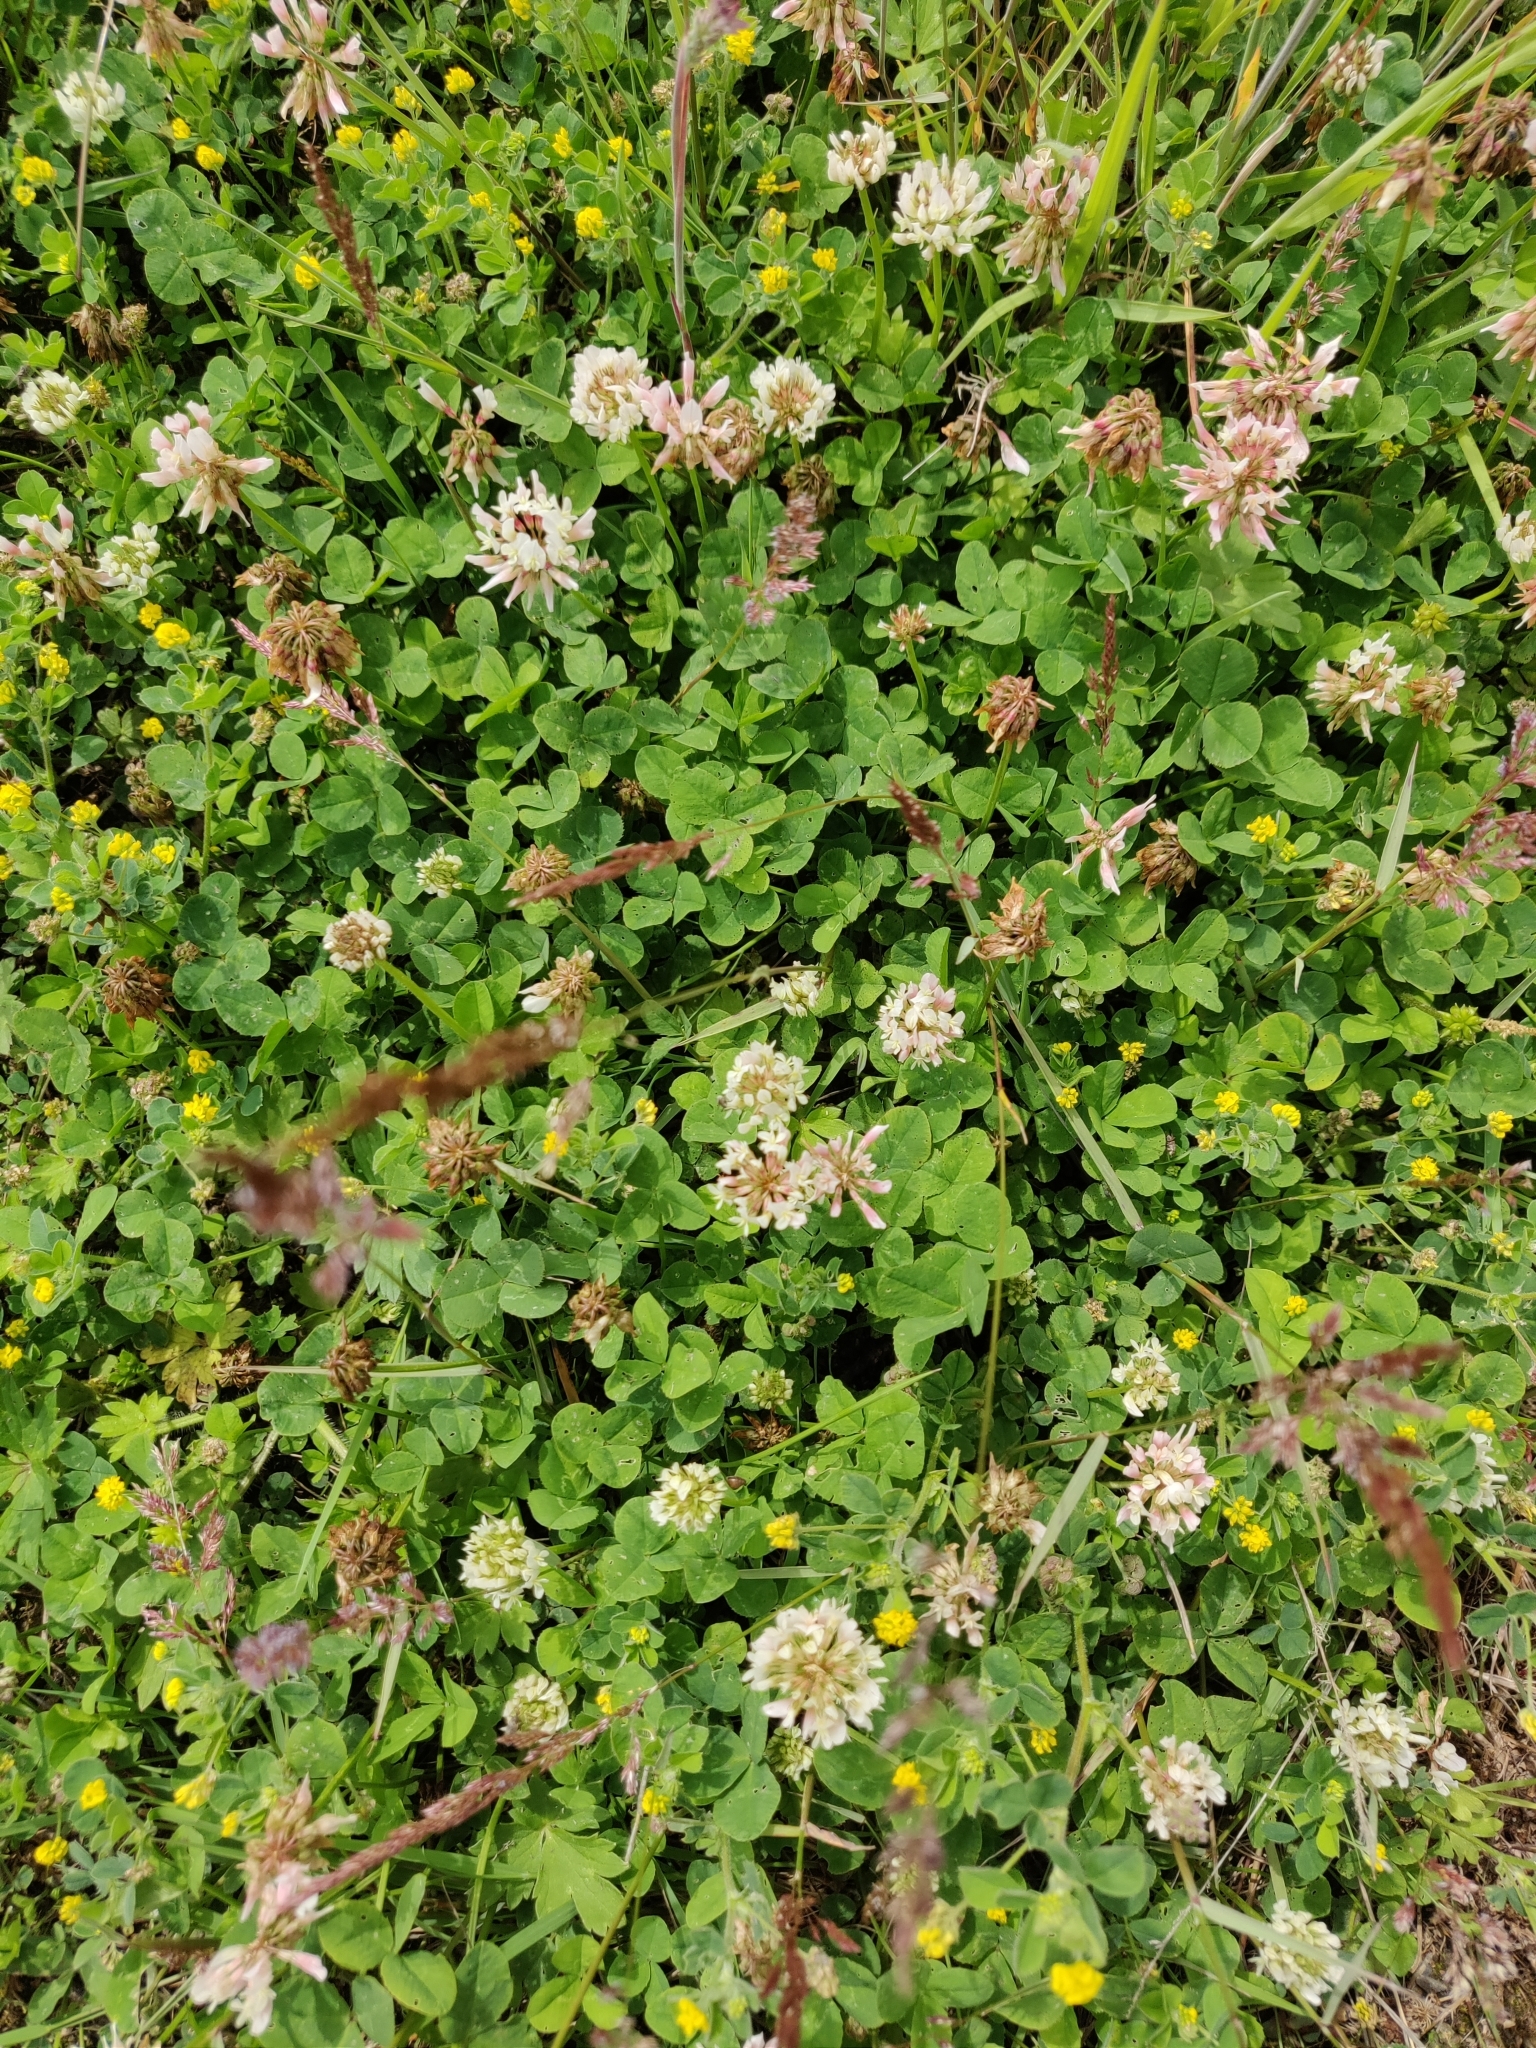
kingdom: Plantae
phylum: Tracheophyta
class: Magnoliopsida
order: Fabales
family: Fabaceae
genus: Trifolium
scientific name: Trifolium repens
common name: White clover
